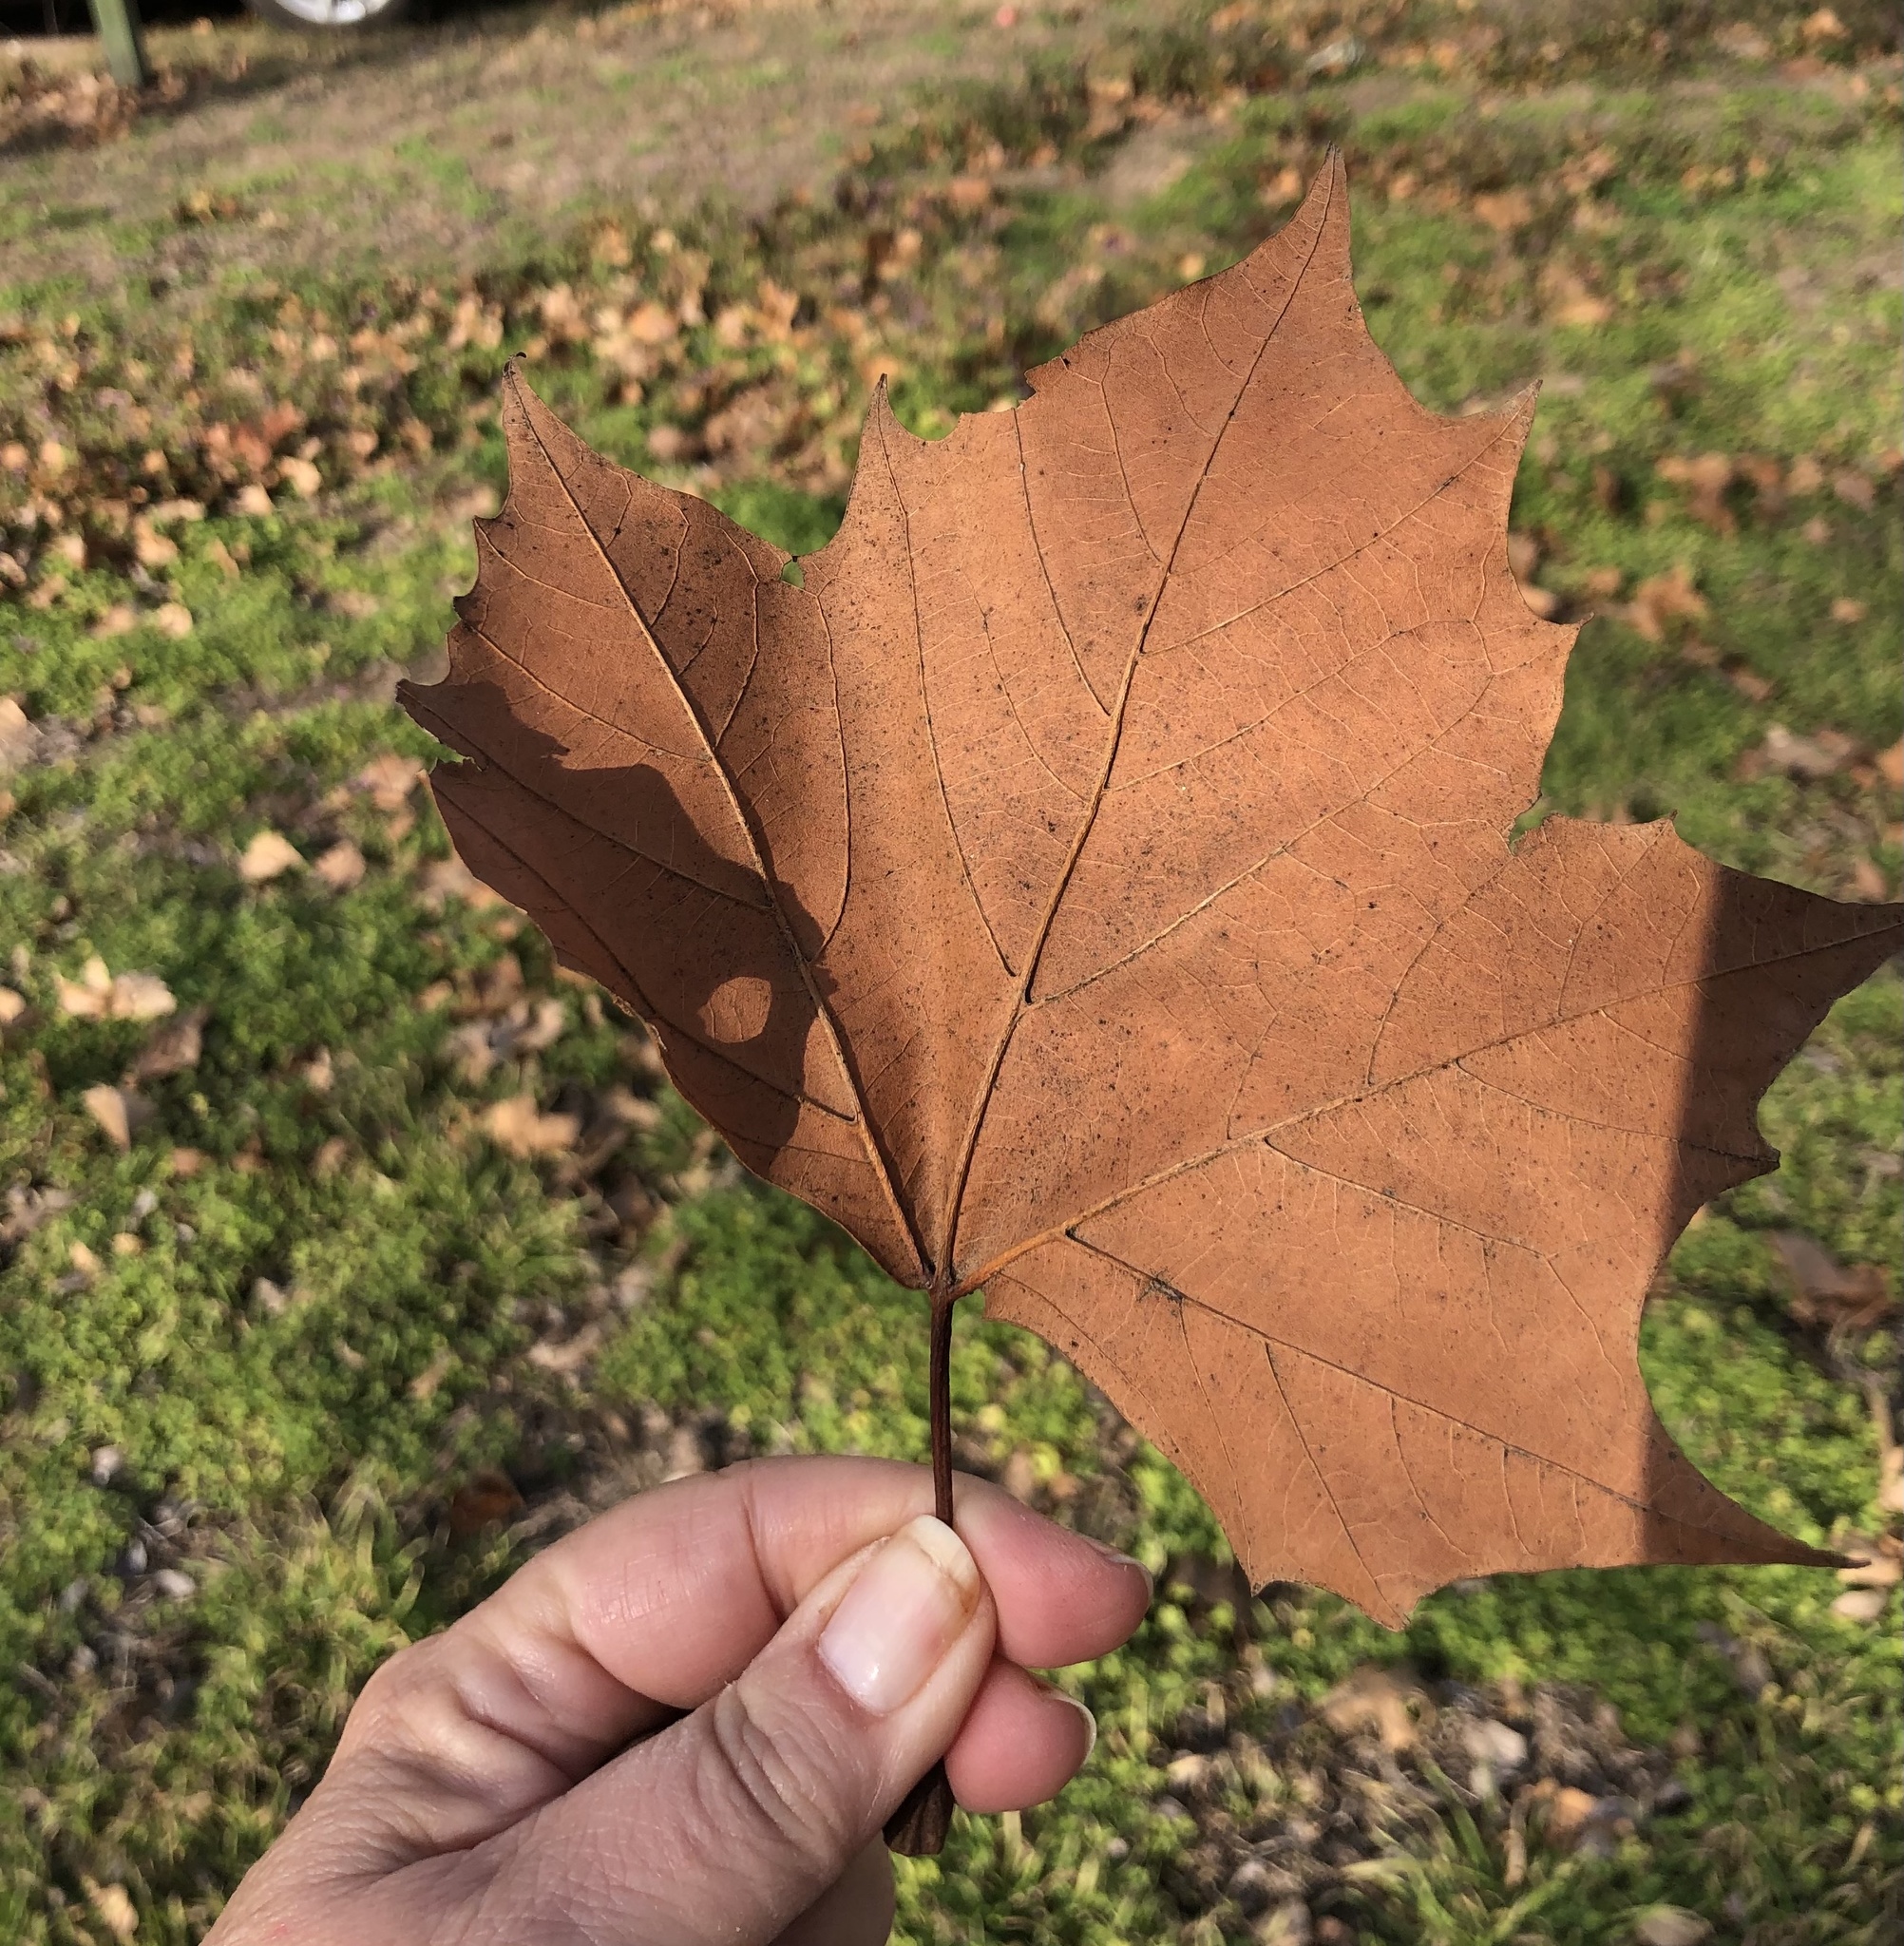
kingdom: Plantae
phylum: Tracheophyta
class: Magnoliopsida
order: Proteales
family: Platanaceae
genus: Platanus
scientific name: Platanus occidentalis
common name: American sycamore
